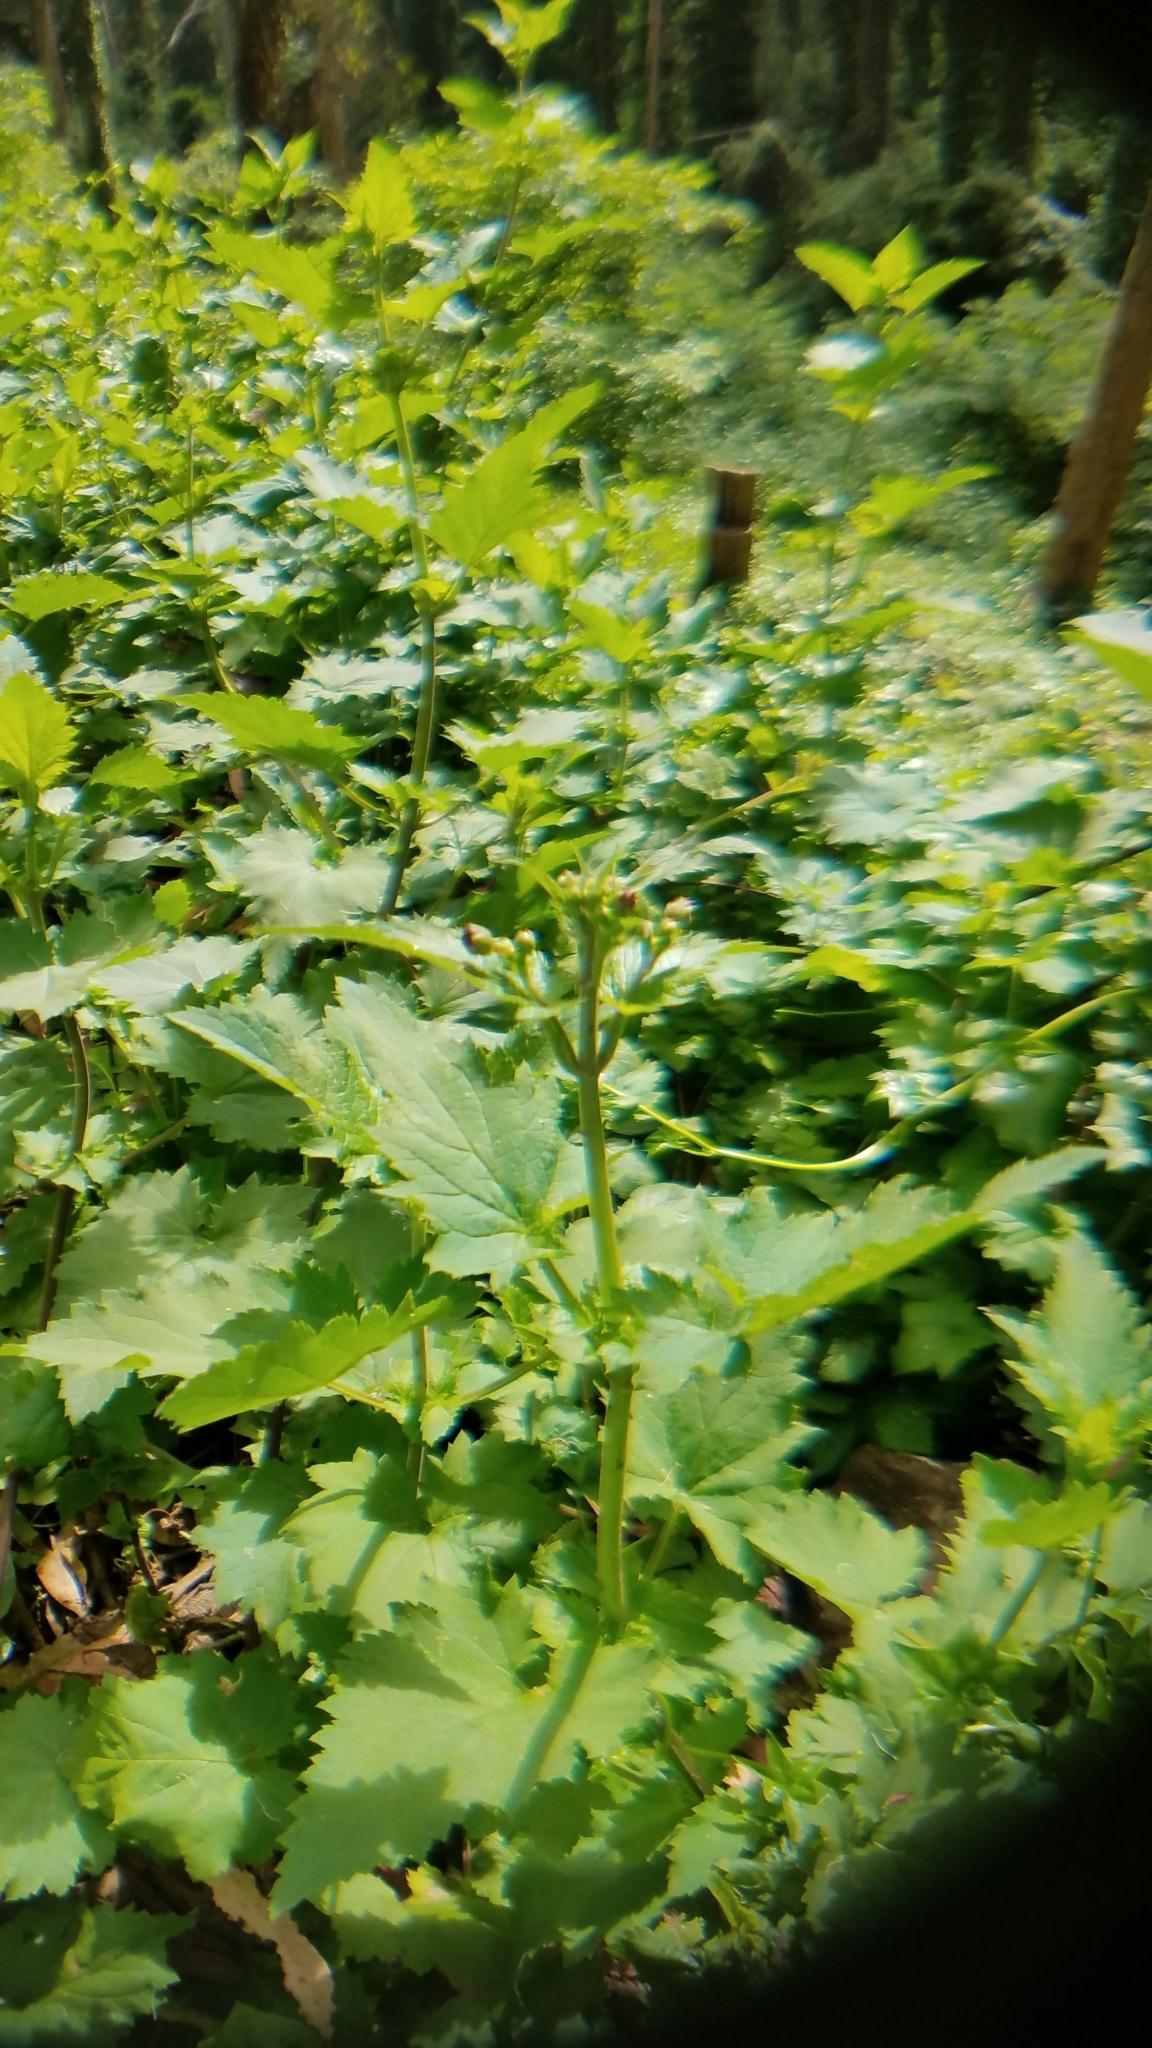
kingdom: Plantae
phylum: Tracheophyta
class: Magnoliopsida
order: Lamiales
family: Scrophulariaceae
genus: Scrophularia
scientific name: Scrophularia californica
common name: California figwort
